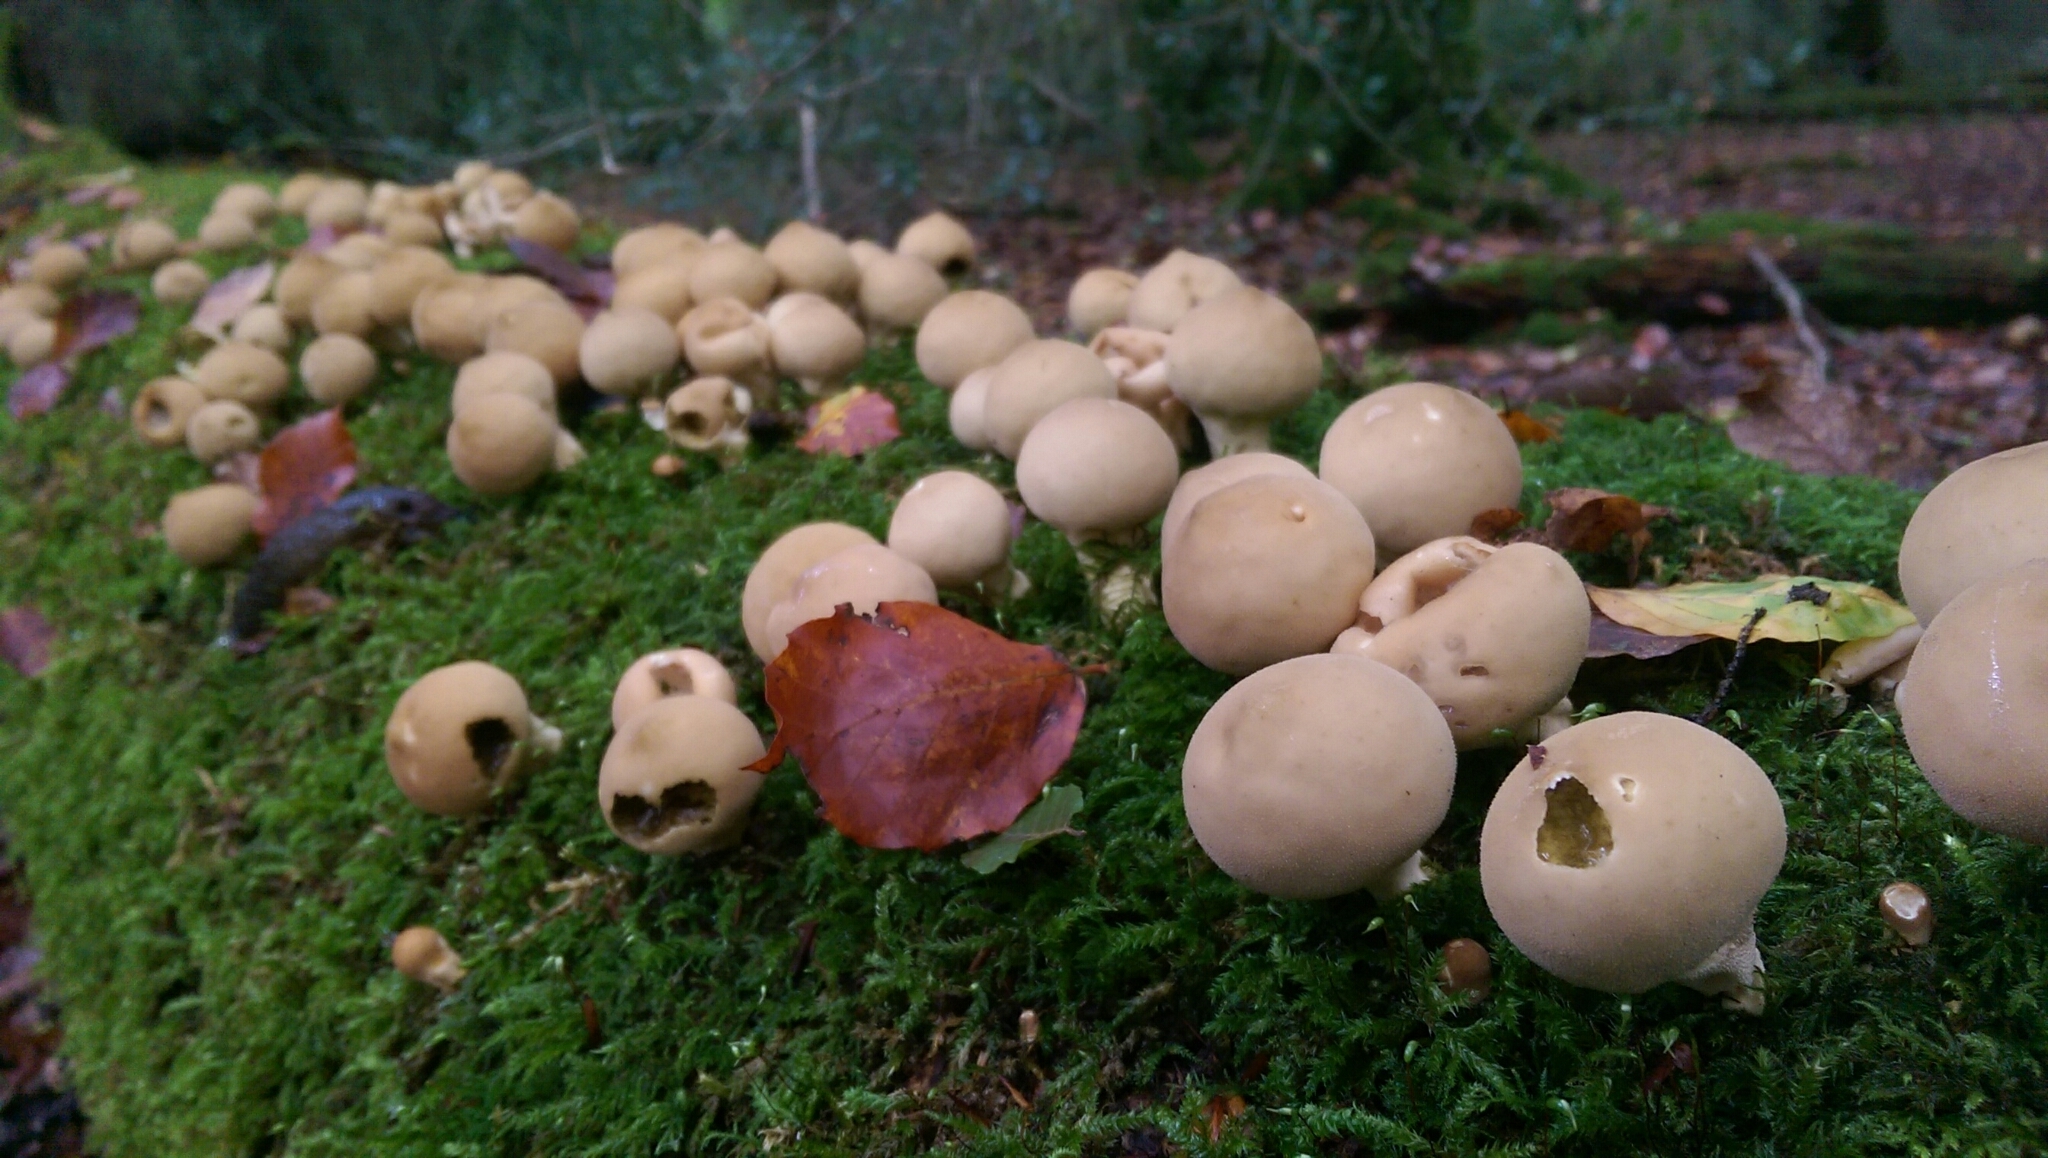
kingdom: Fungi
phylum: Basidiomycota
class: Agaricomycetes
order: Agaricales
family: Lycoperdaceae
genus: Apioperdon
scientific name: Apioperdon pyriforme
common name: Pear-shaped puffball
